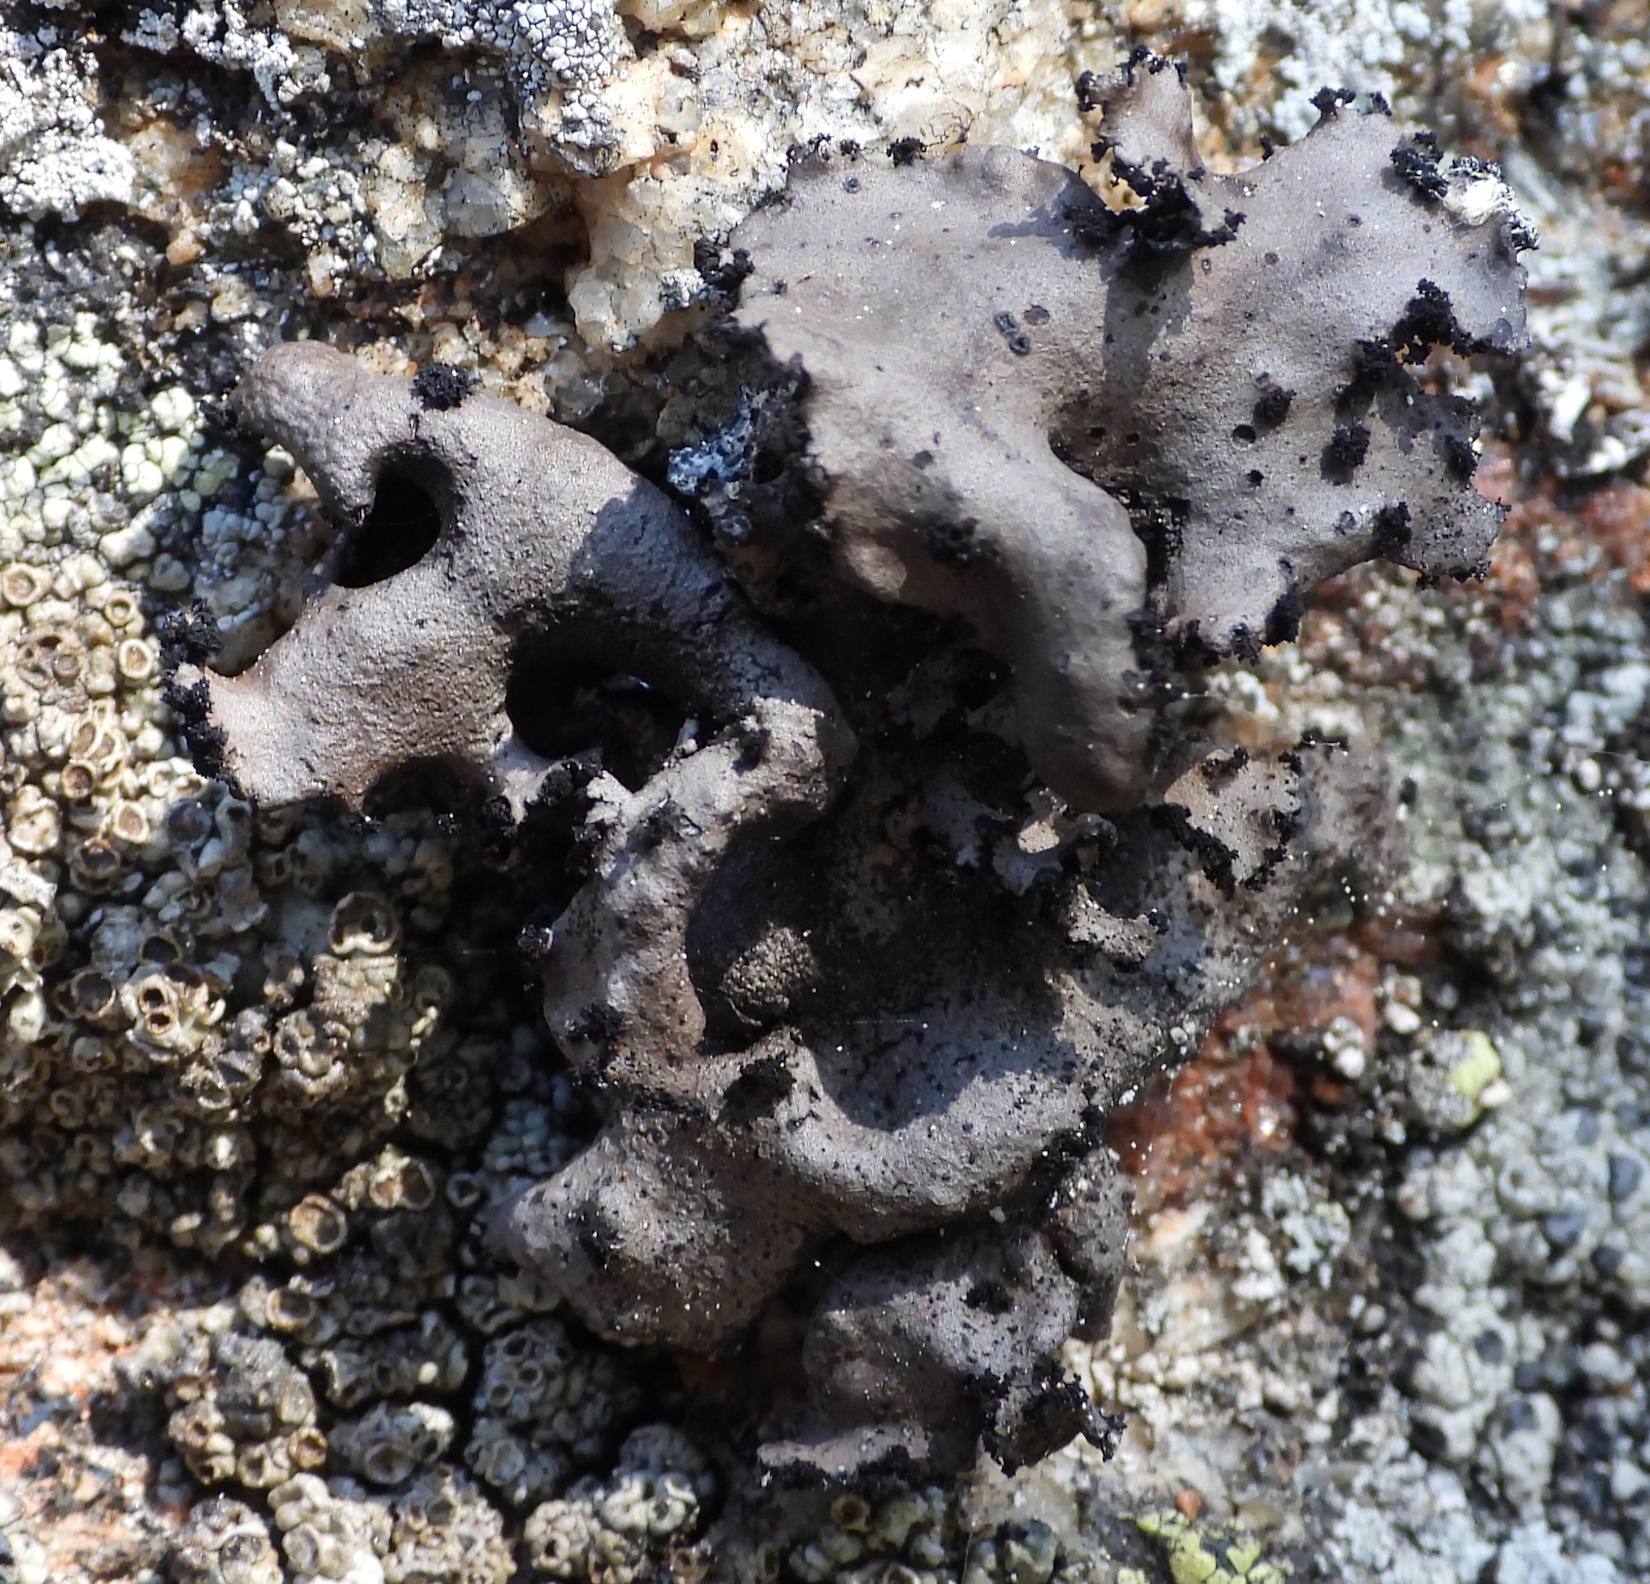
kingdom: Fungi
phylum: Ascomycota
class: Lecanoromycetes
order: Umbilicariales
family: Umbilicariaceae
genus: Umbilicaria
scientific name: Umbilicaria polyrrhiza
